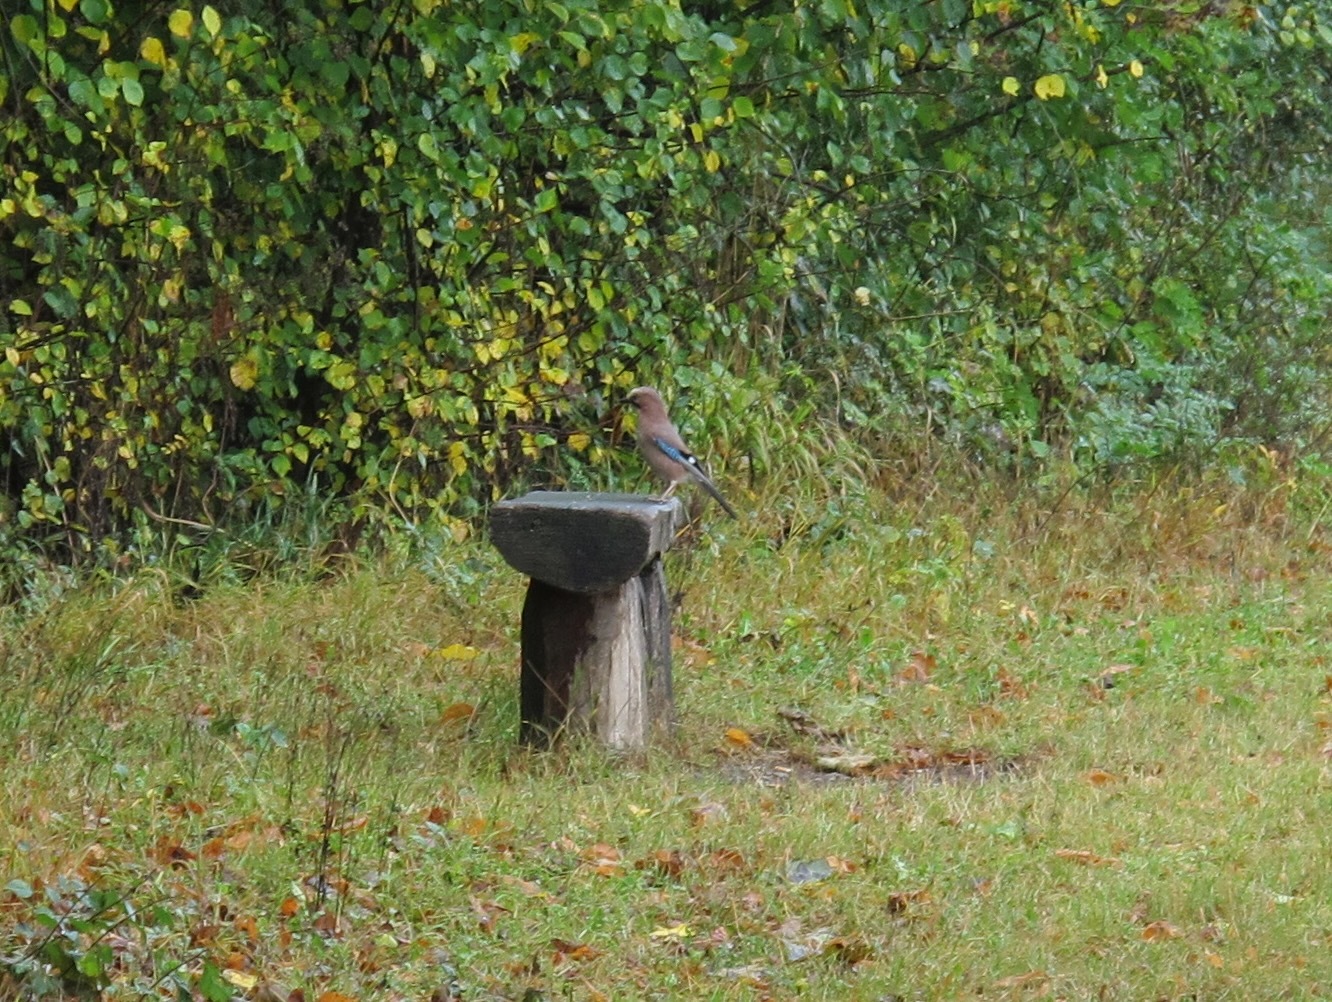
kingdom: Animalia
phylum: Chordata
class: Aves
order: Passeriformes
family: Corvidae
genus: Garrulus
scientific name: Garrulus glandarius
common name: Eurasian jay
